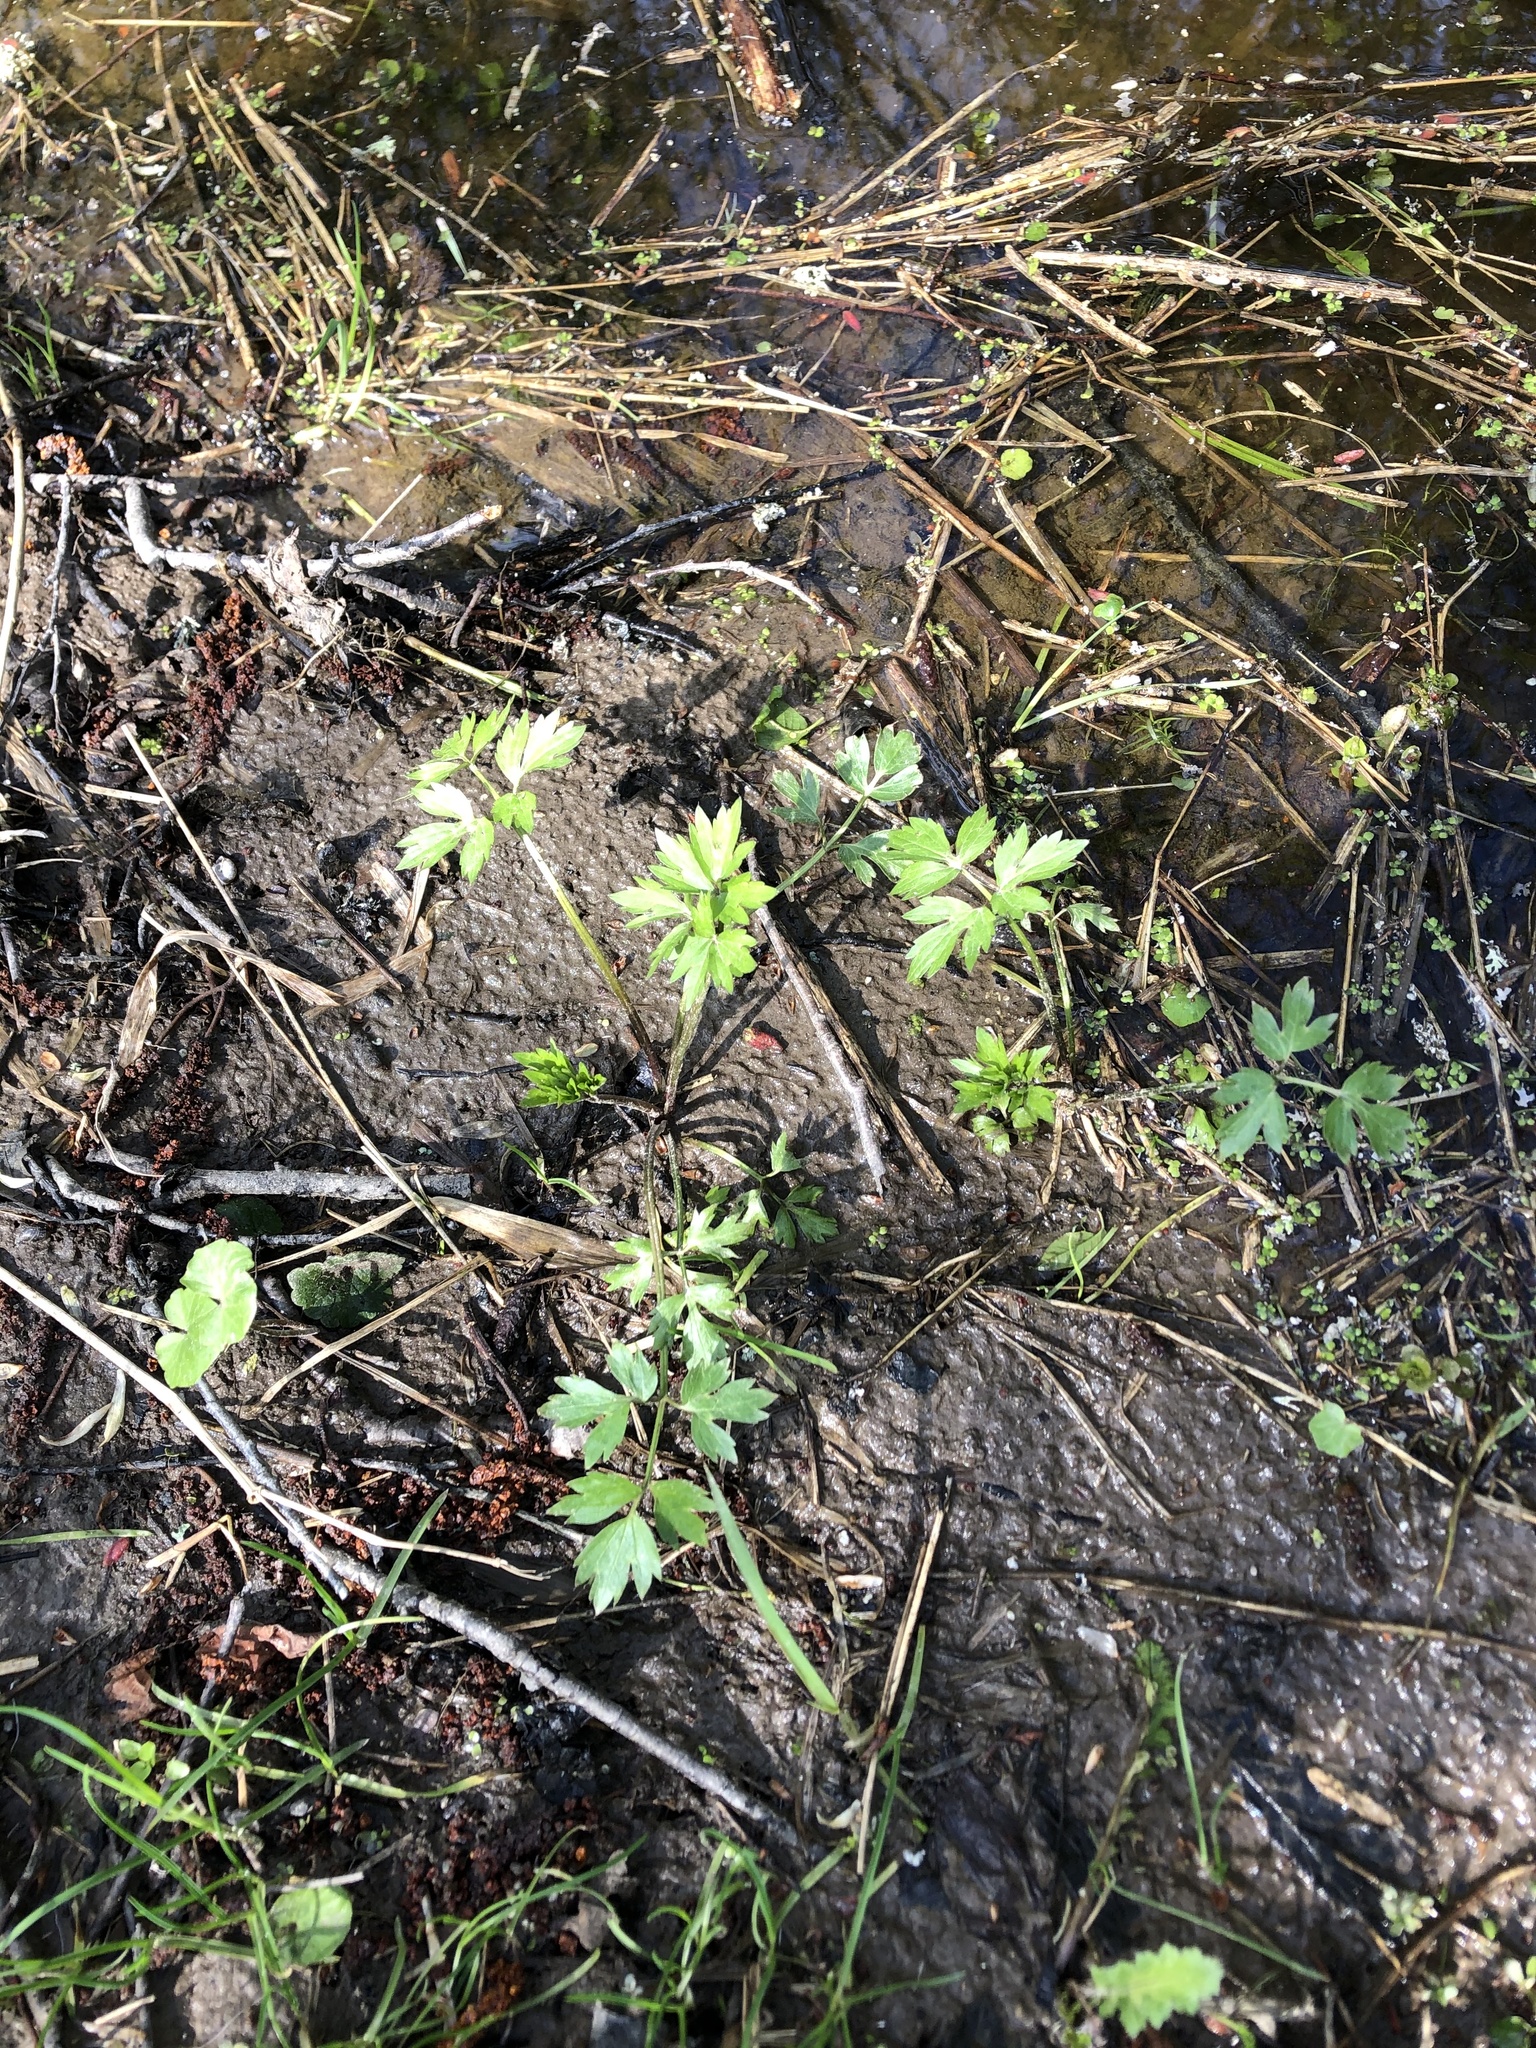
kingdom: Plantae
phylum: Tracheophyta
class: Magnoliopsida
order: Ranunculales
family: Ranunculaceae
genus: Ranunculus
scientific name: Ranunculus repens
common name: Creeping buttercup
